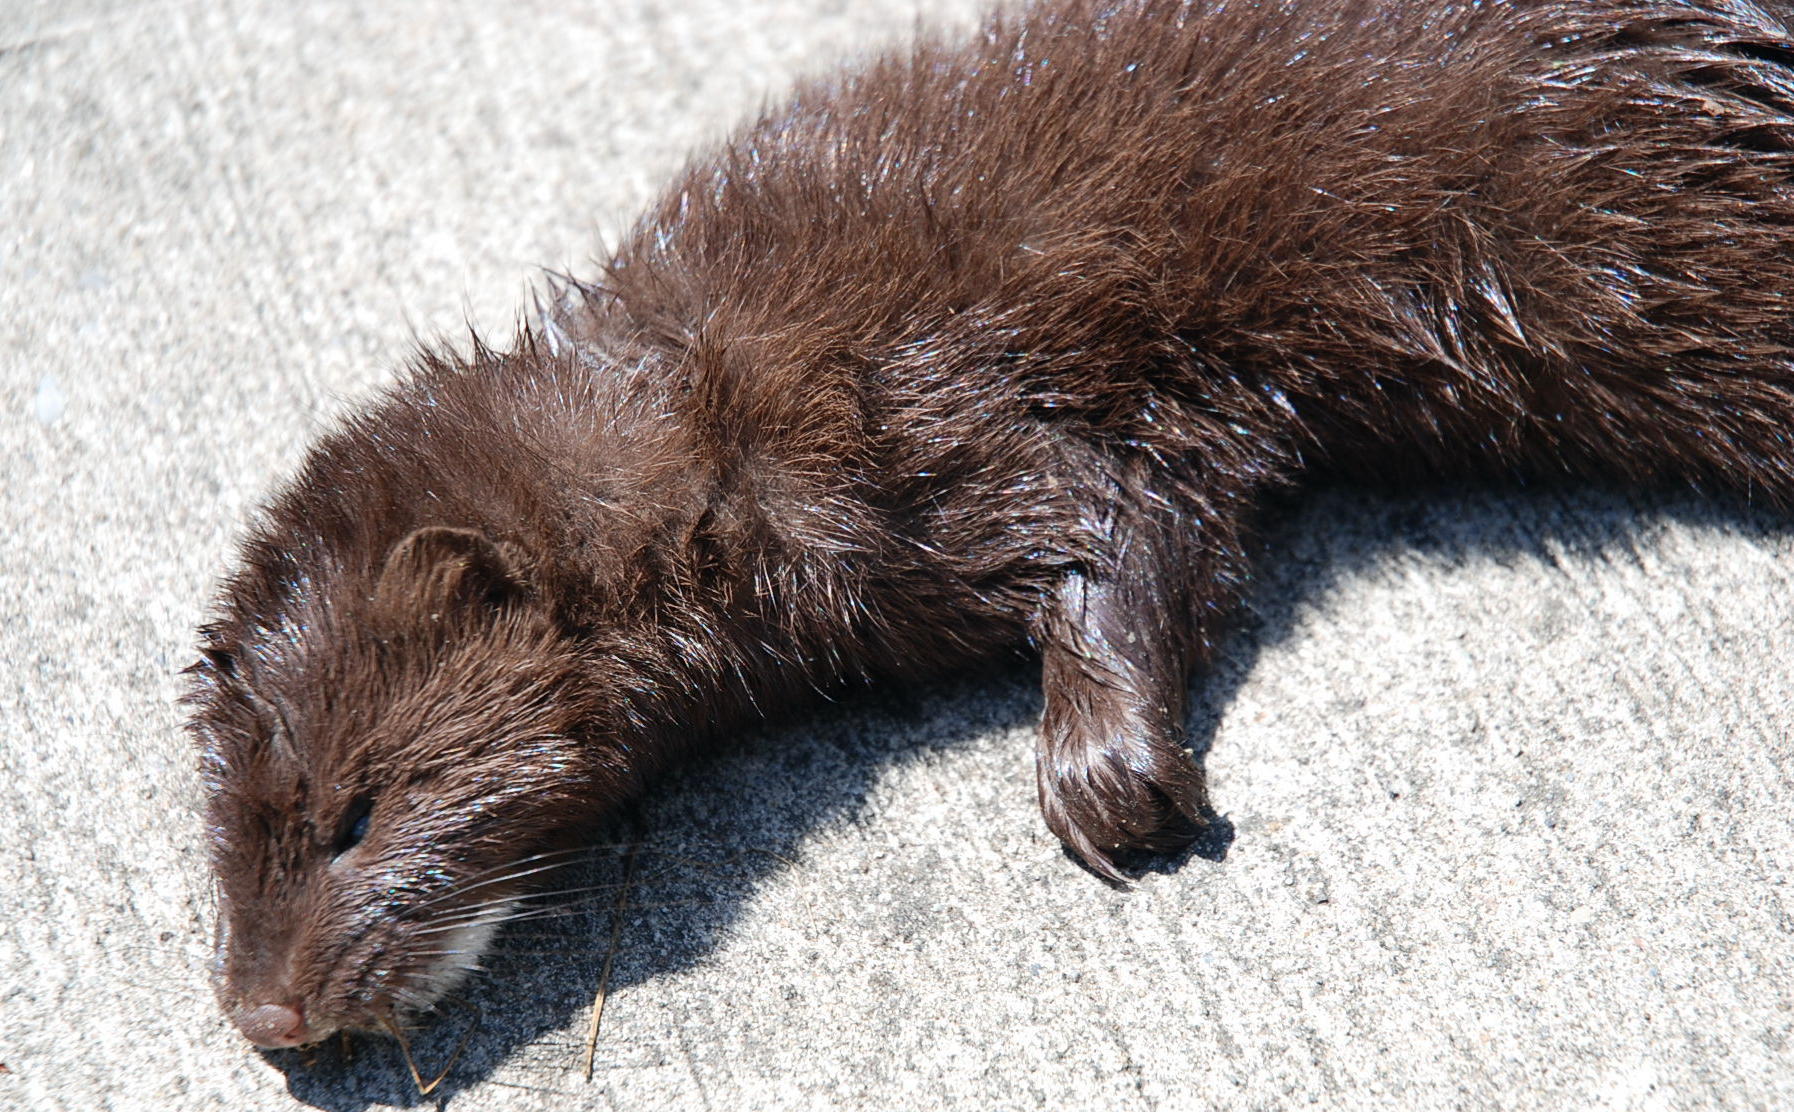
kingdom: Animalia
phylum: Chordata
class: Mammalia
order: Carnivora
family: Mustelidae
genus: Mustela
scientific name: Mustela
